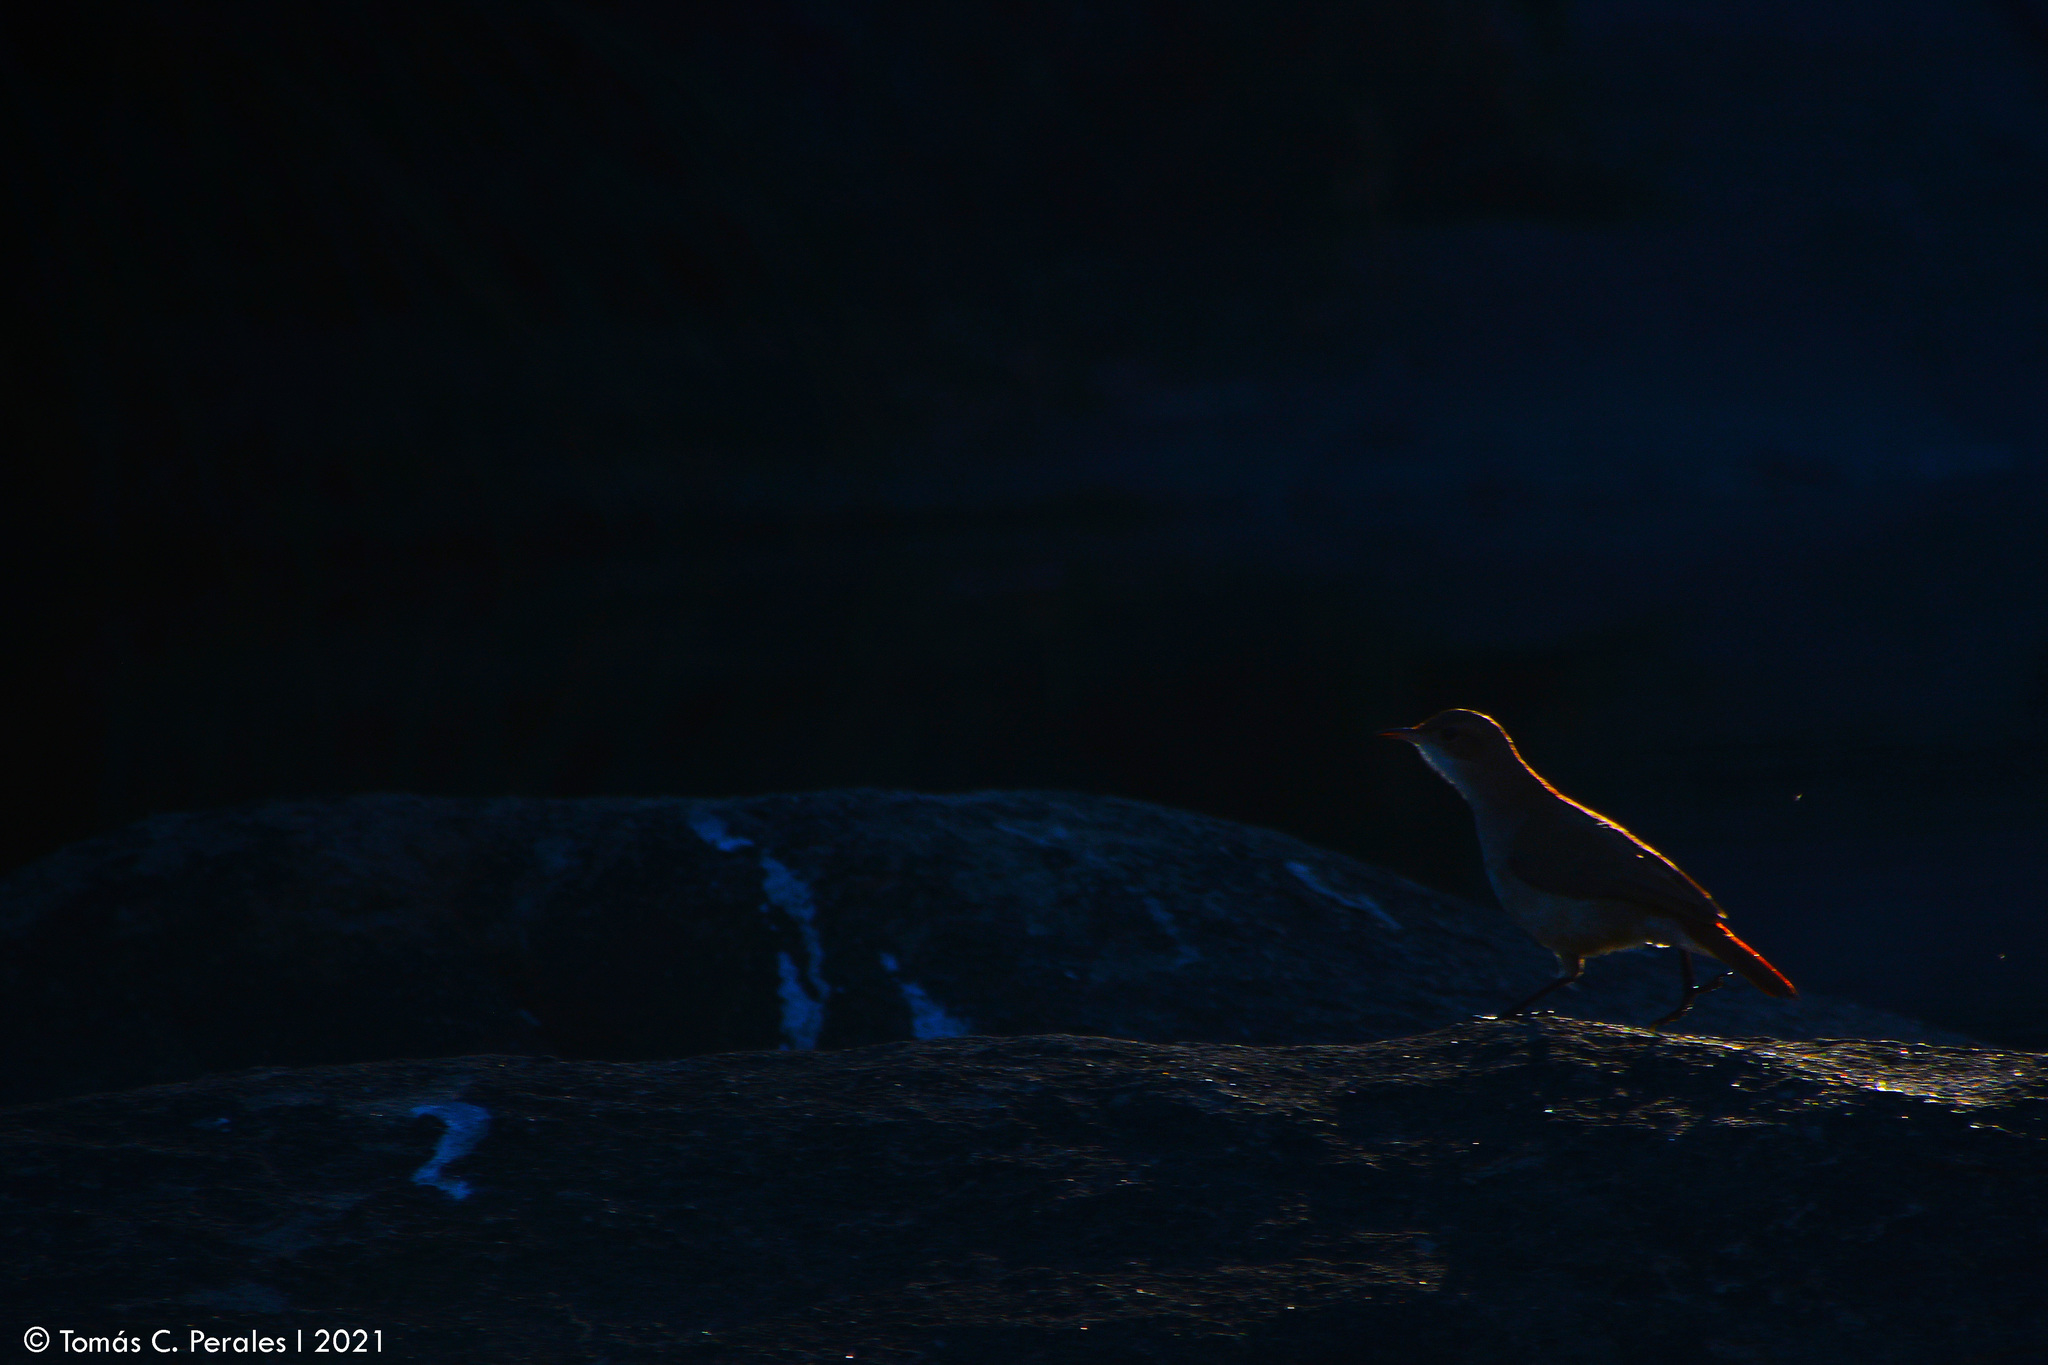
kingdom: Animalia
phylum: Chordata
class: Aves
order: Passeriformes
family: Furnariidae
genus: Furnarius
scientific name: Furnarius rufus
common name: Rufous hornero
